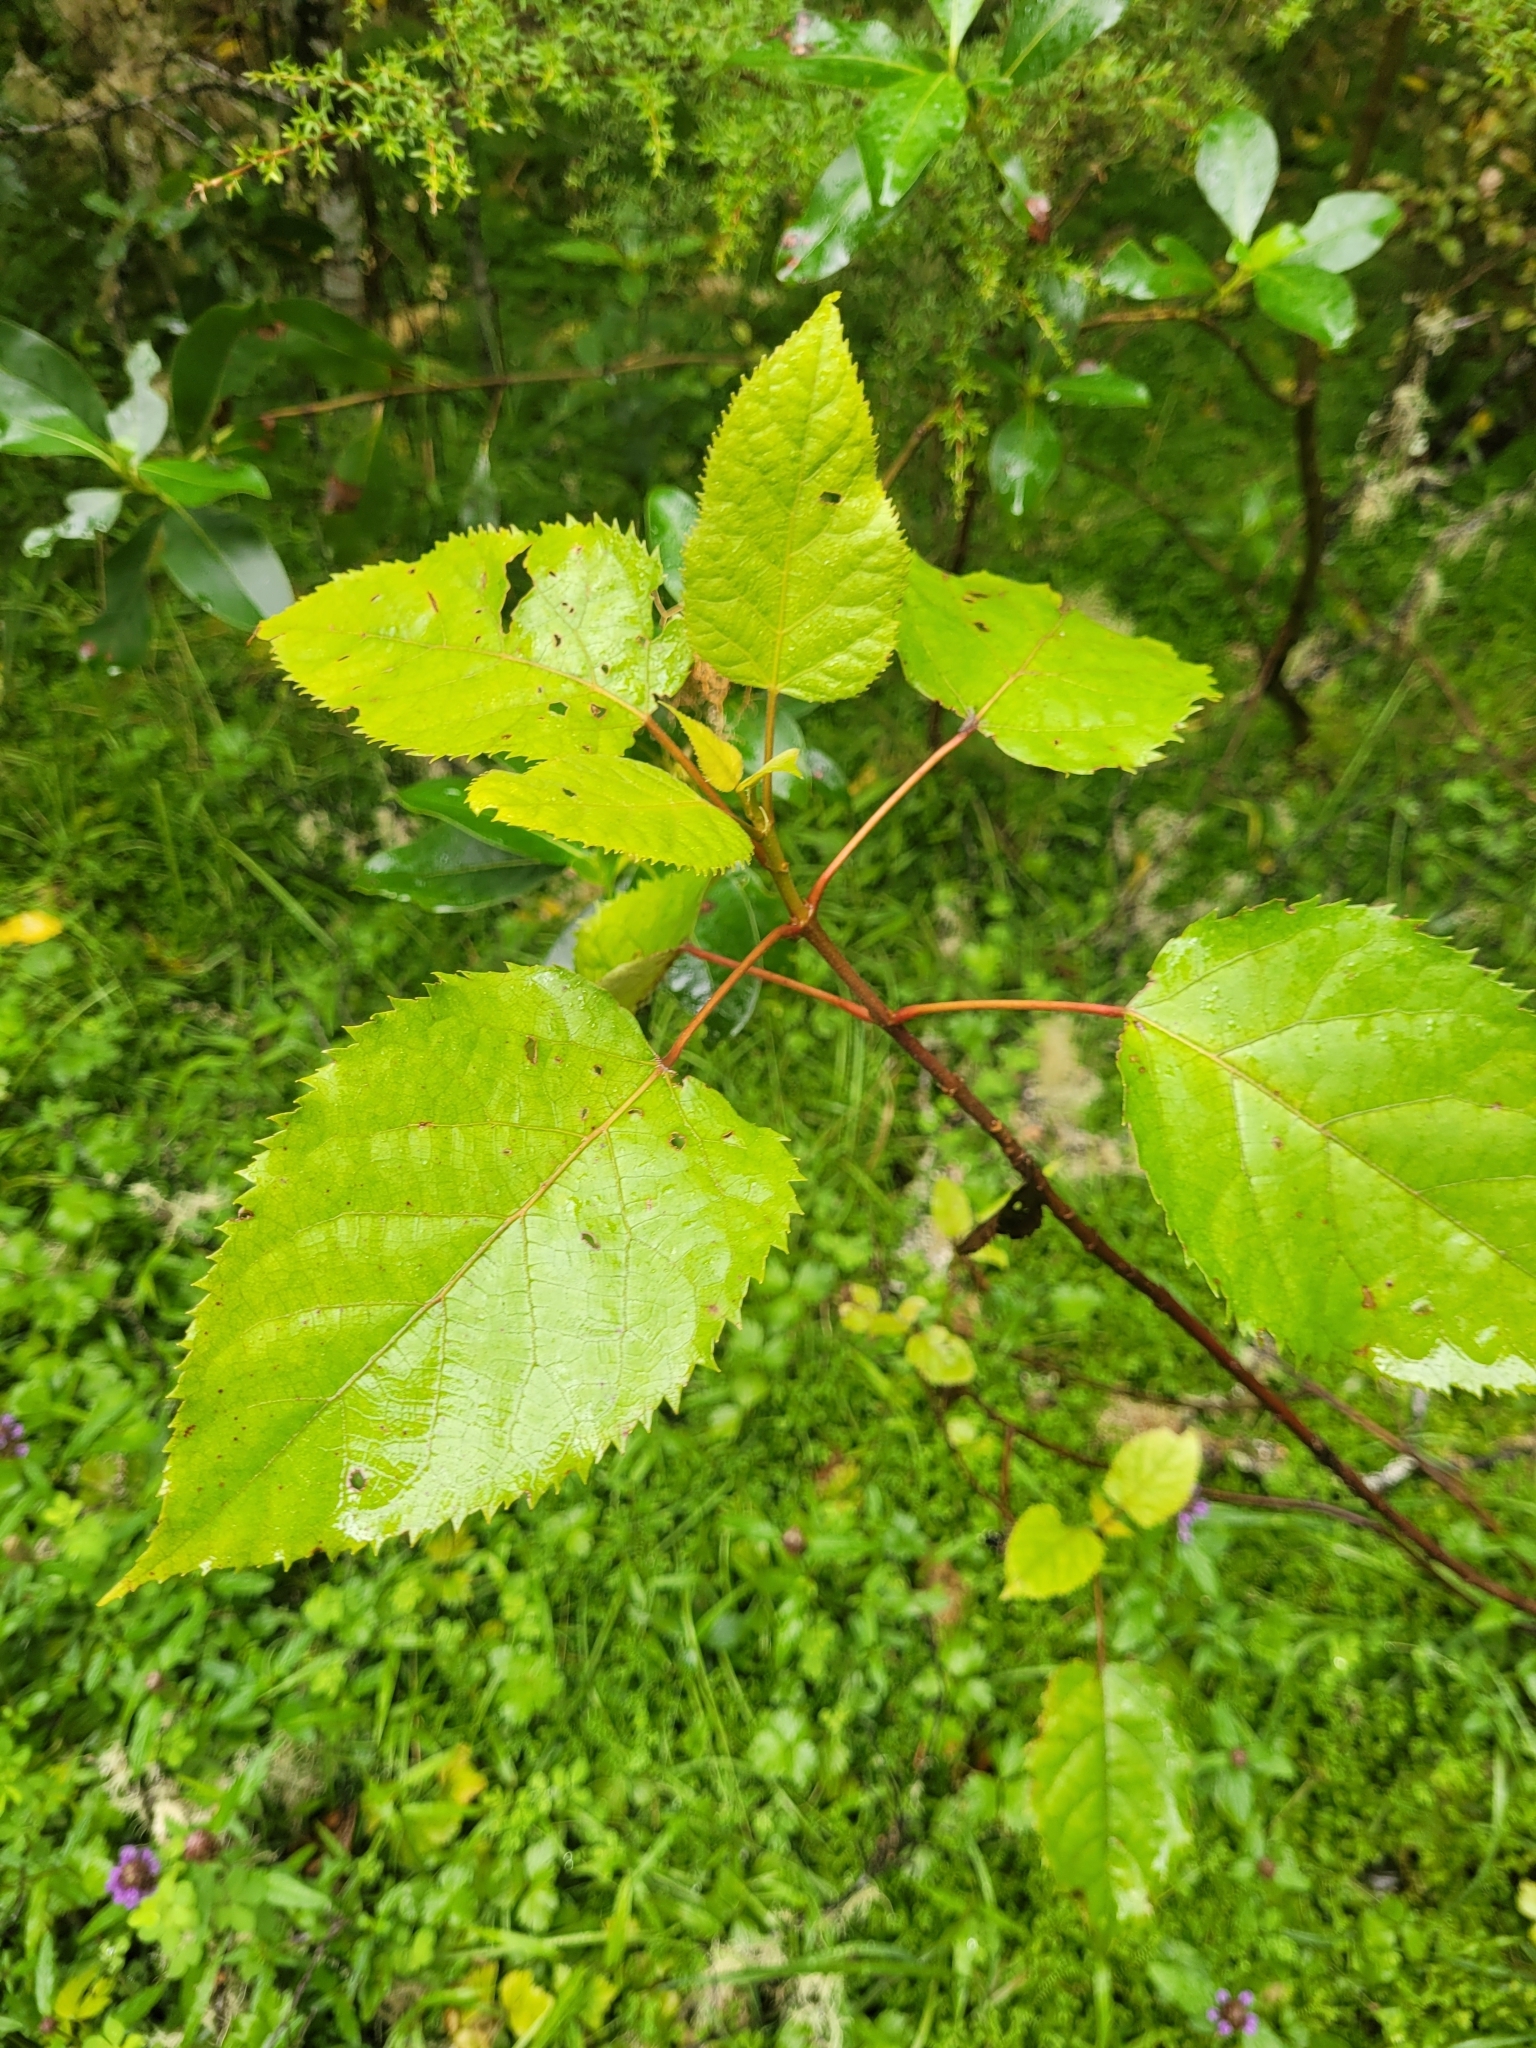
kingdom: Plantae
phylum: Tracheophyta
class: Magnoliopsida
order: Oxalidales
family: Elaeocarpaceae
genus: Aristotelia
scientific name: Aristotelia serrata
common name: New zealand wineberry
